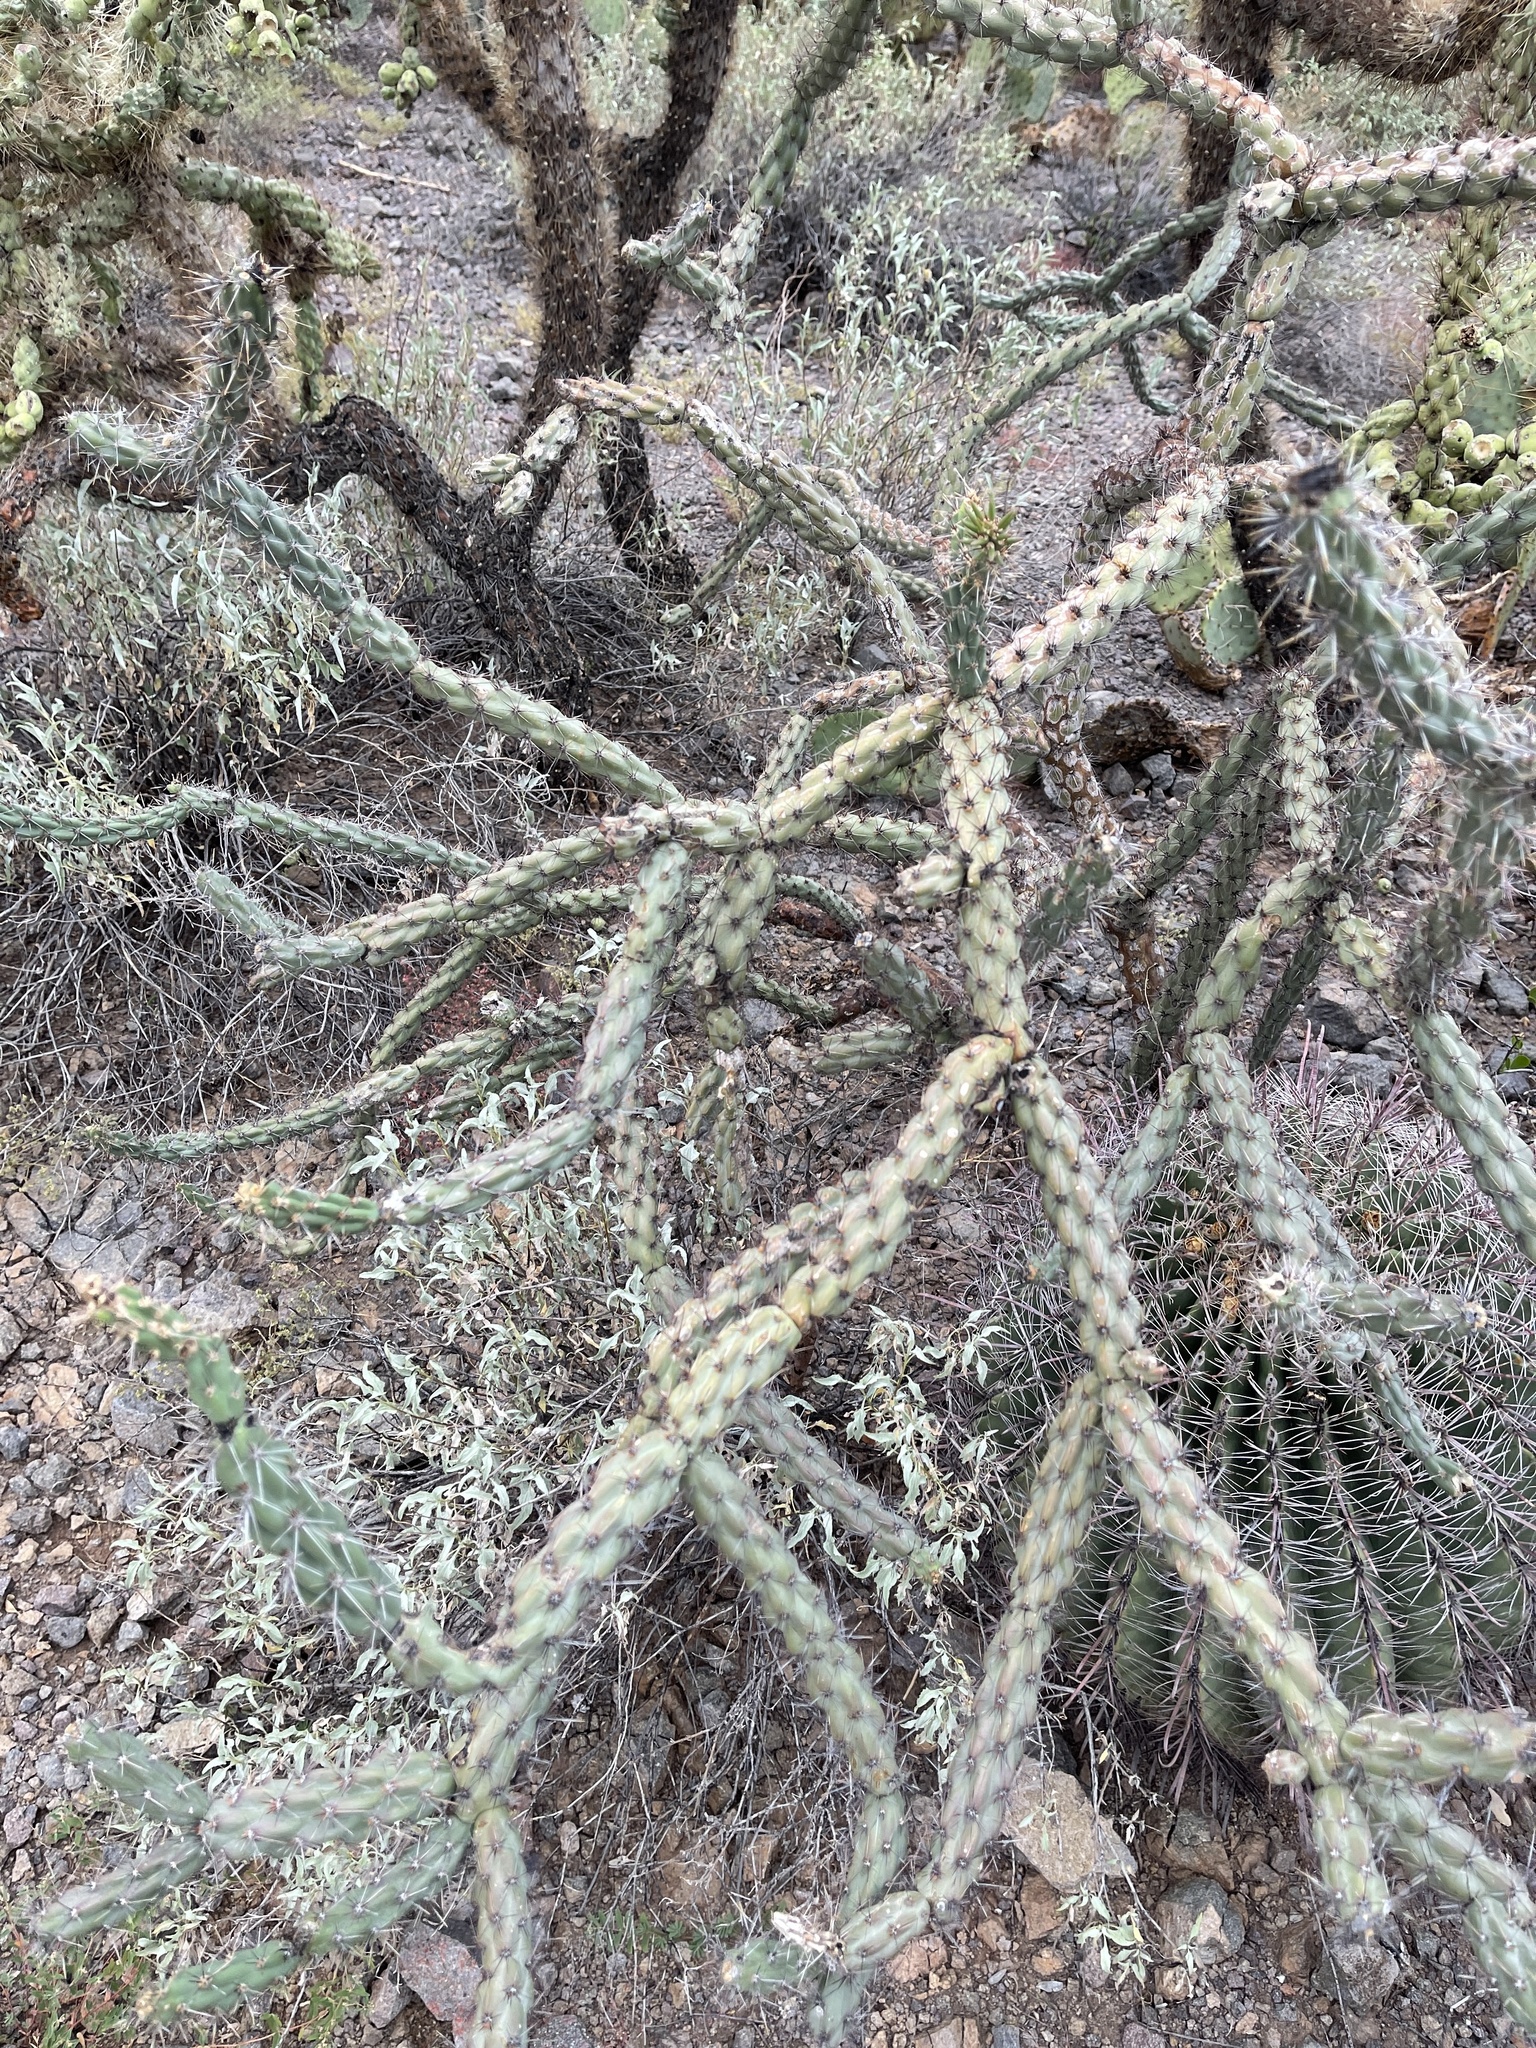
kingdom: Plantae
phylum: Tracheophyta
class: Magnoliopsida
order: Caryophyllales
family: Cactaceae
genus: Cylindropuntia
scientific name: Cylindropuntia thurberi
